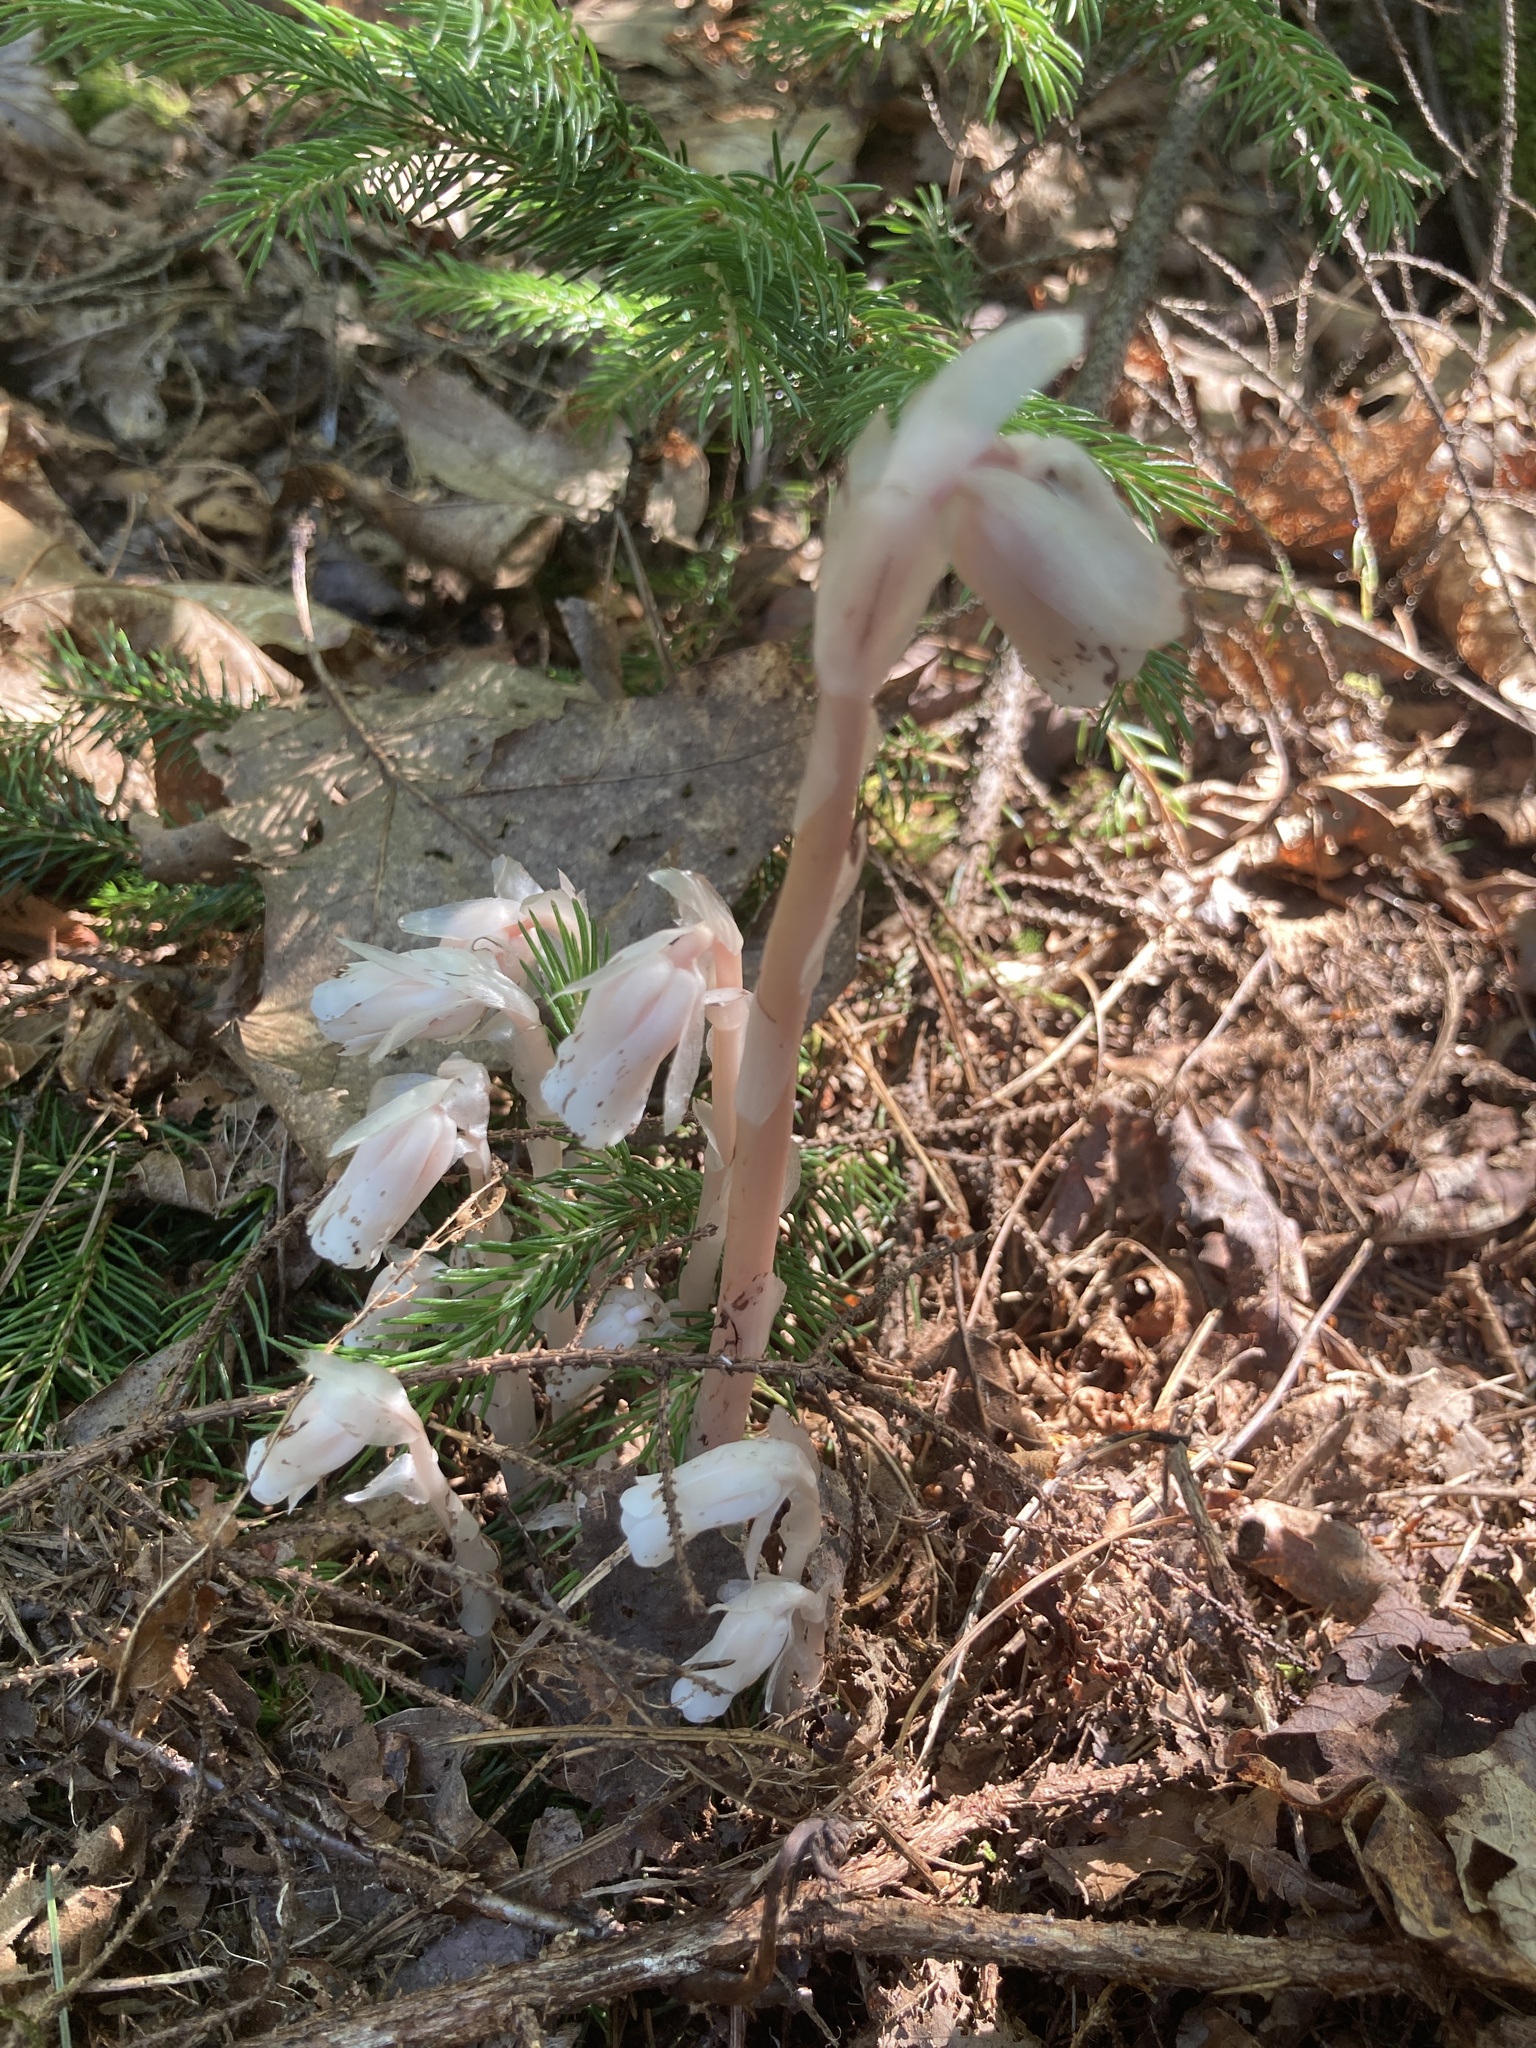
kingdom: Plantae
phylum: Tracheophyta
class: Magnoliopsida
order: Ericales
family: Ericaceae
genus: Monotropa
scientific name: Monotropa uniflora
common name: Convulsion root
